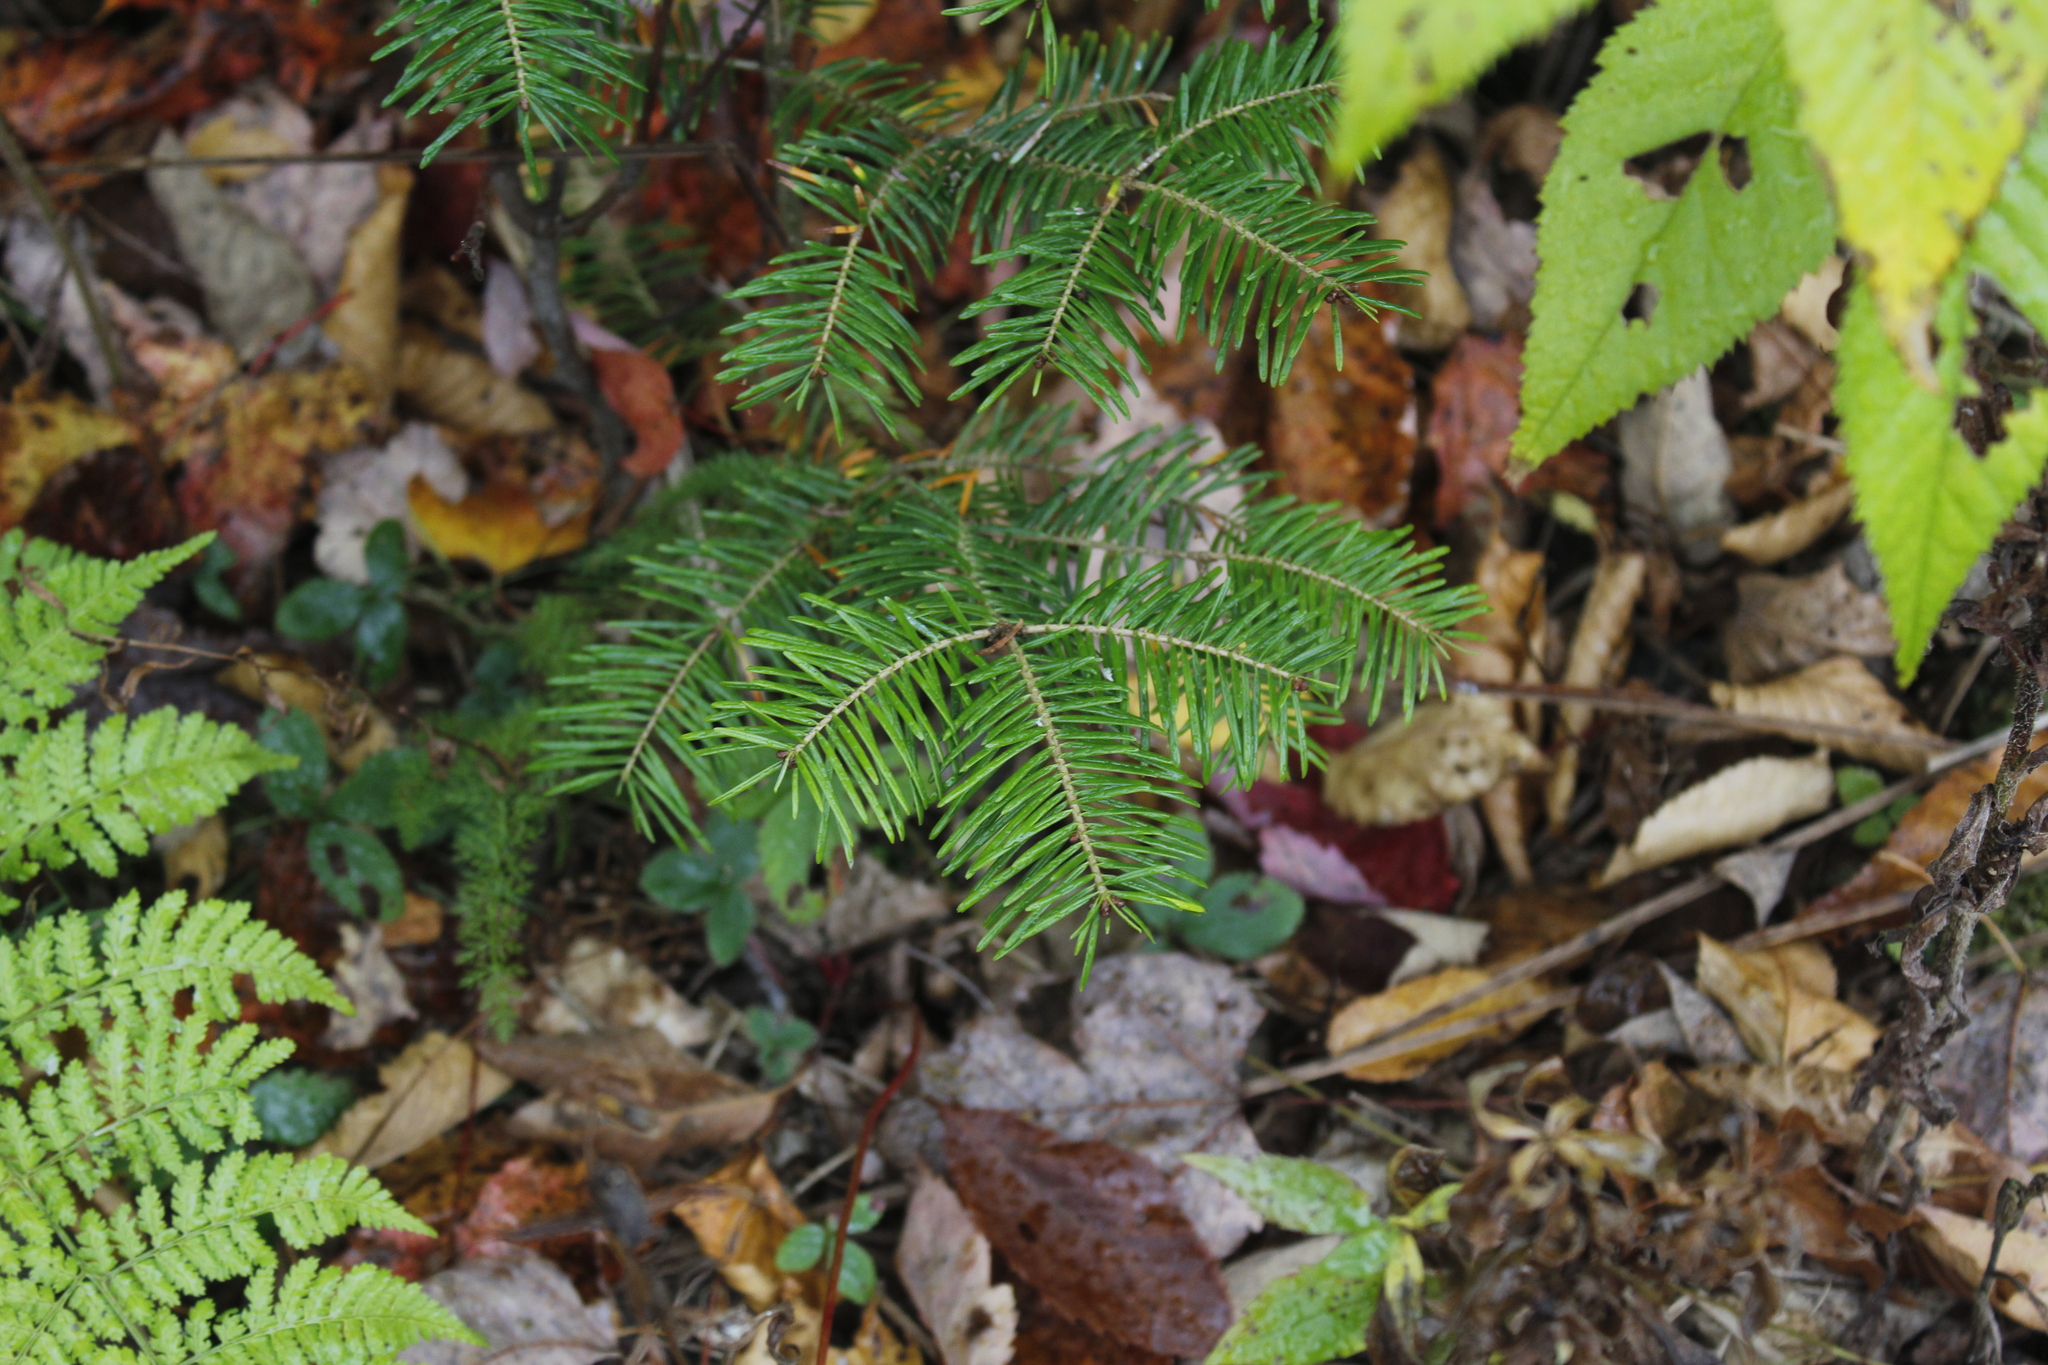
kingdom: Plantae
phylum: Tracheophyta
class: Pinopsida
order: Pinales
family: Pinaceae
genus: Abies
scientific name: Abies balsamea
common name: Balsam fir
